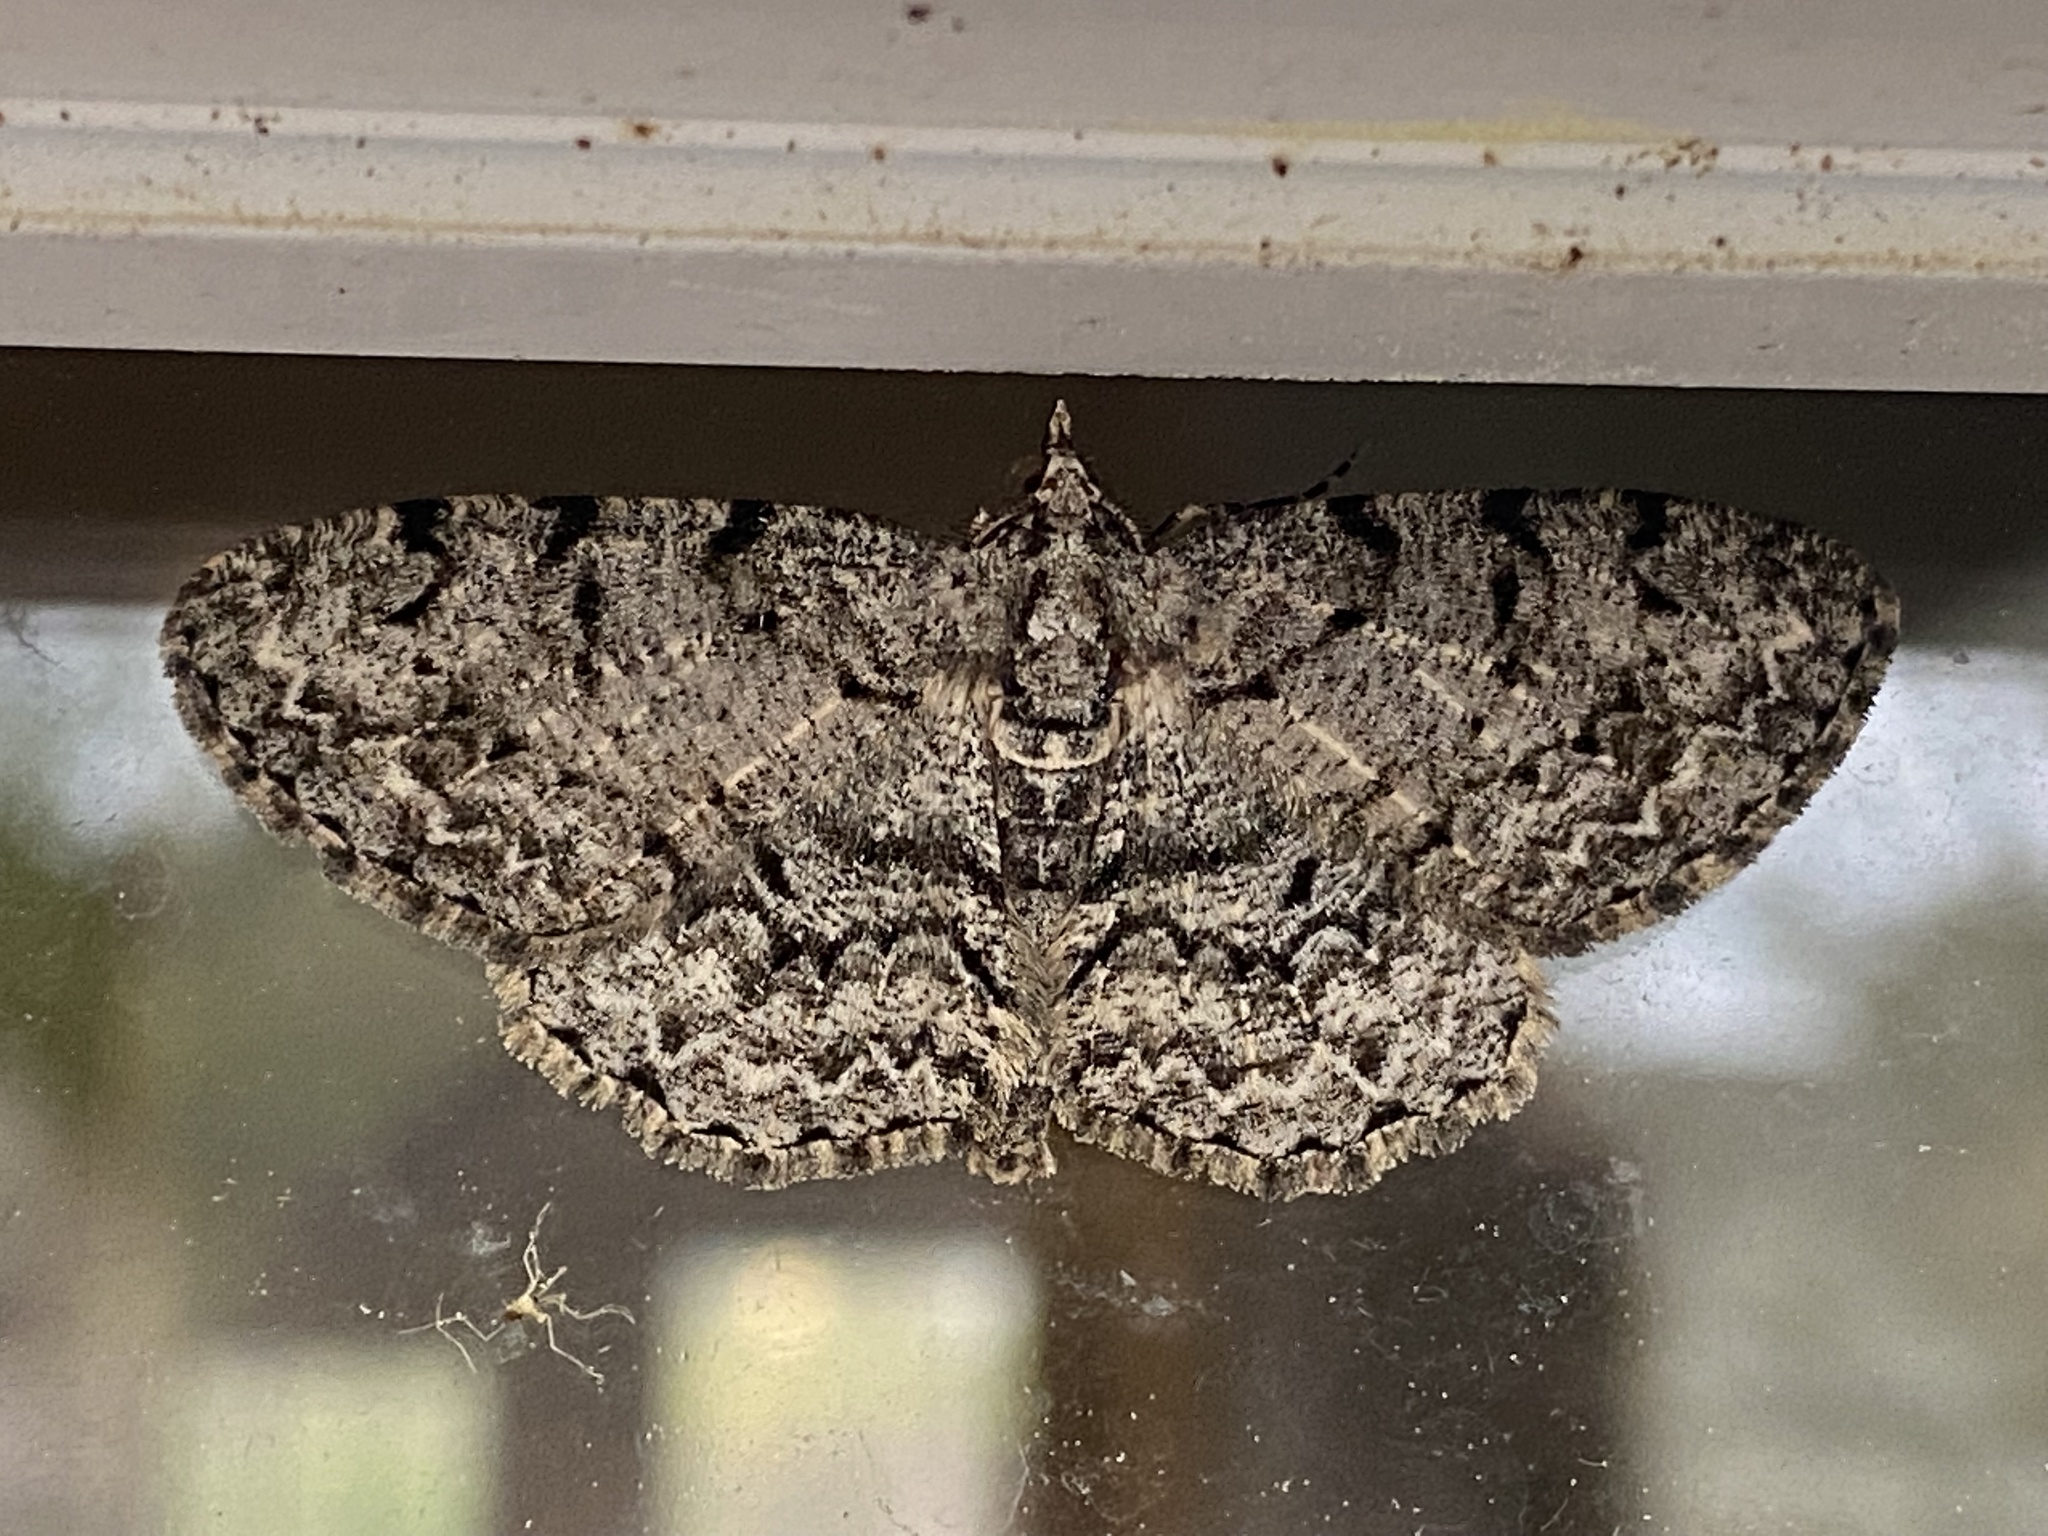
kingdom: Animalia
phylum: Arthropoda
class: Insecta
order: Lepidoptera
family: Geometridae
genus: Protoboarmia
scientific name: Protoboarmia porcelaria
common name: Porcelain gray
